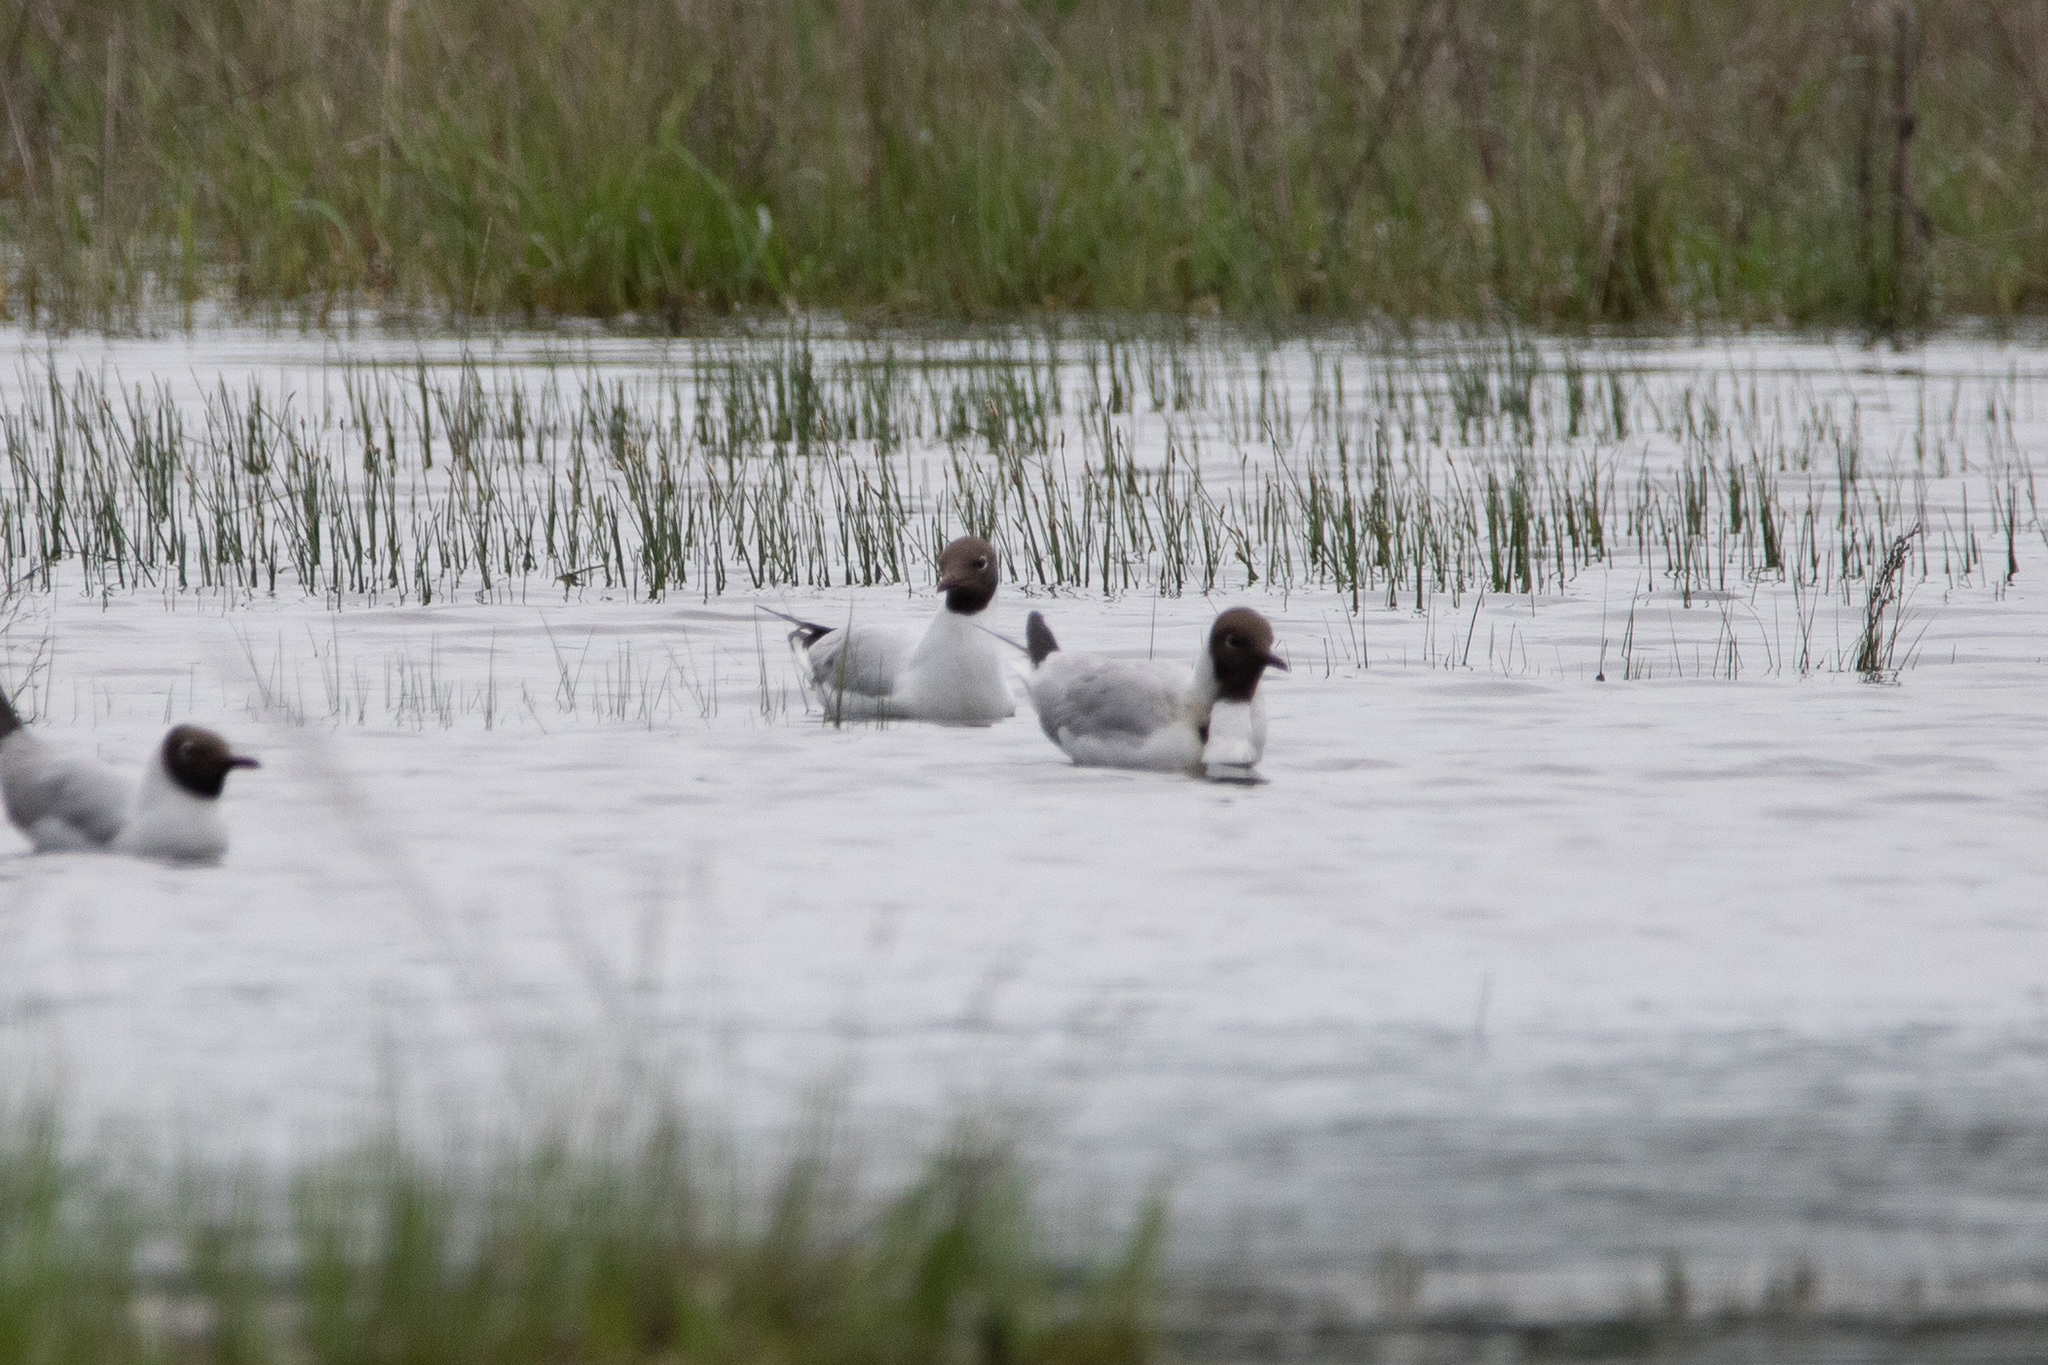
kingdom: Animalia
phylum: Chordata
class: Aves
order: Charadriiformes
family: Laridae
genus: Chroicocephalus
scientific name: Chroicocephalus ridibundus
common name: Black-headed gull
